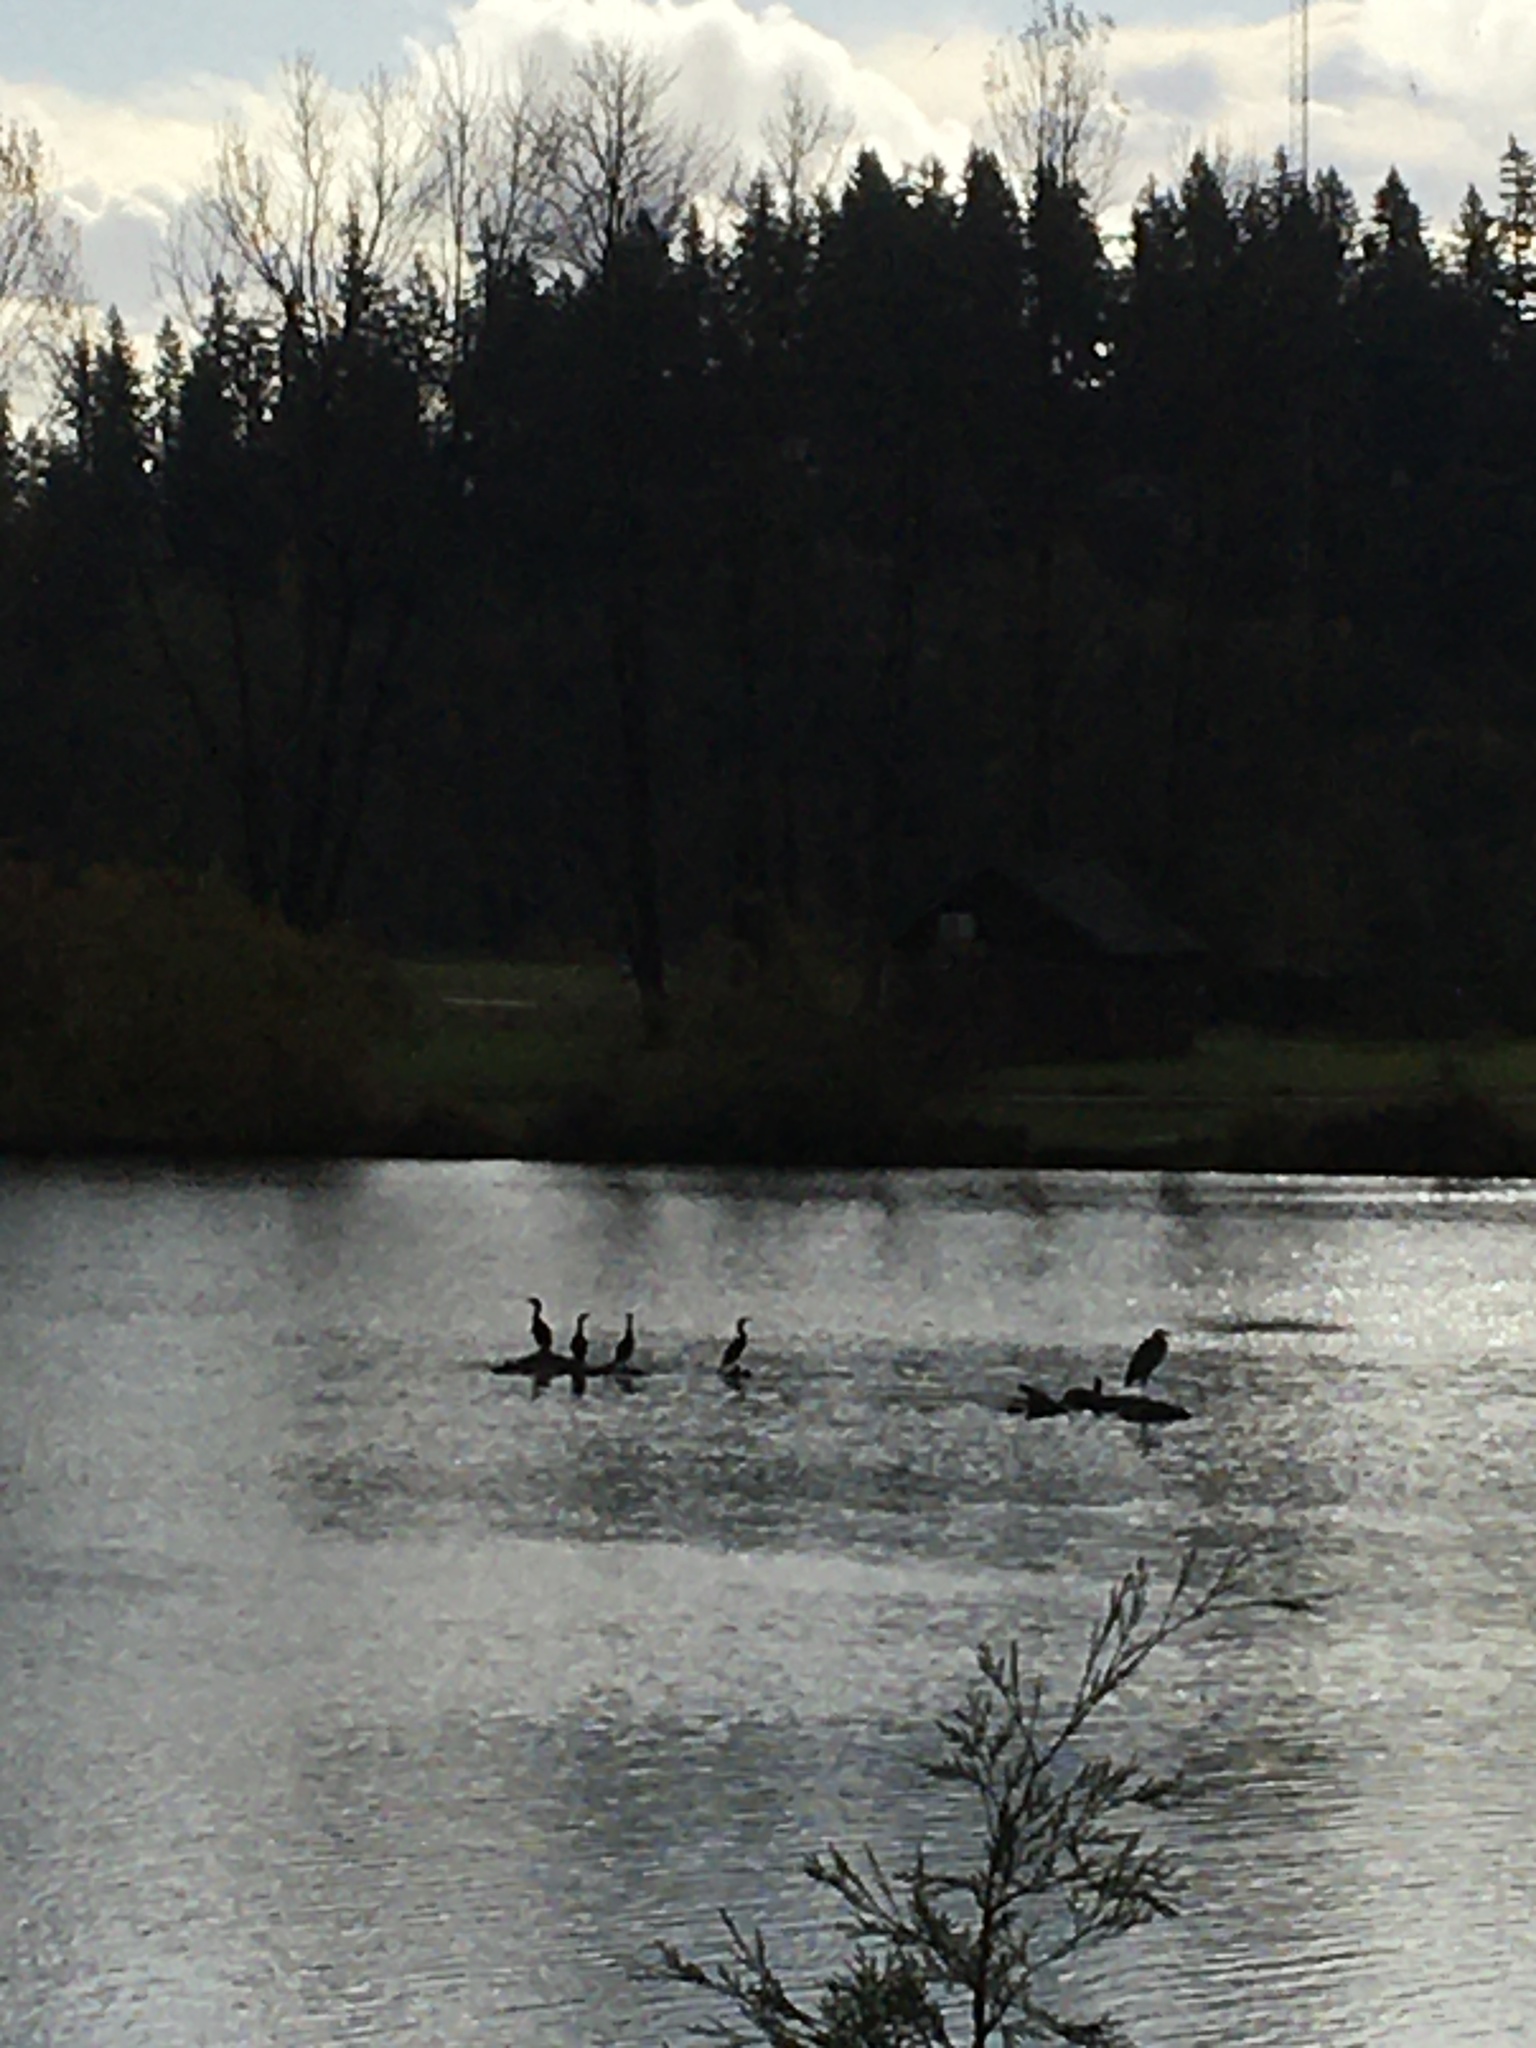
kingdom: Animalia
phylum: Chordata
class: Aves
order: Suliformes
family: Phalacrocoracidae
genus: Phalacrocorax
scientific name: Phalacrocorax auritus
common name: Double-crested cormorant
